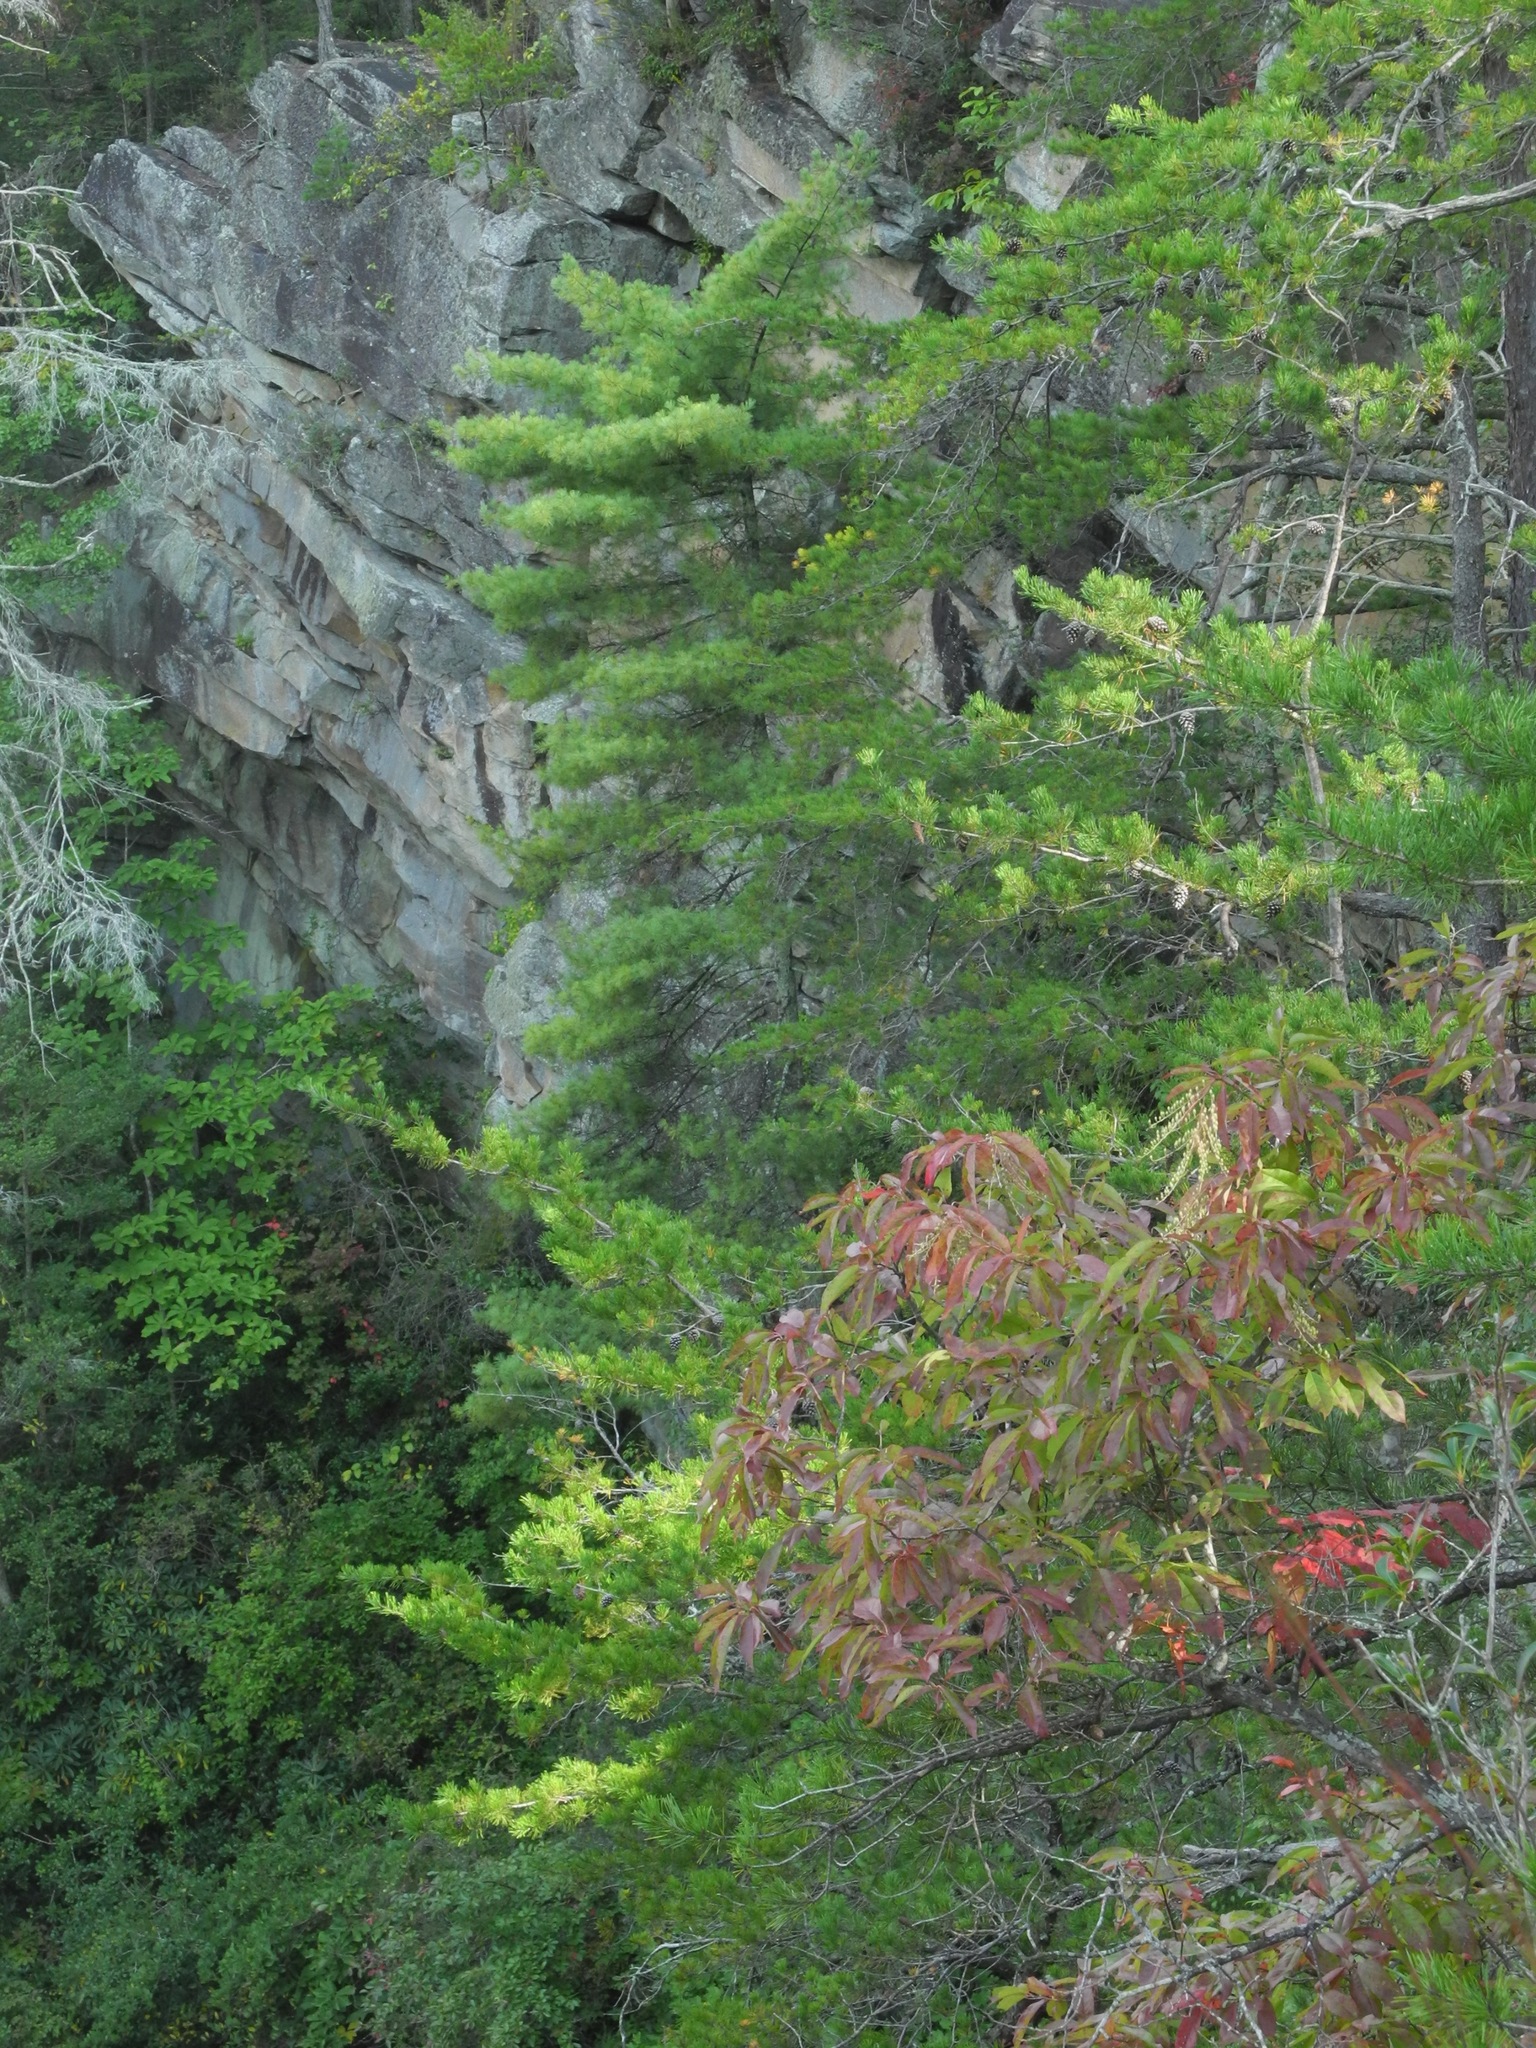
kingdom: Plantae
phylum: Tracheophyta
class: Pinopsida
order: Pinales
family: Pinaceae
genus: Pinus
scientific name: Pinus strobus
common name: Weymouth pine
